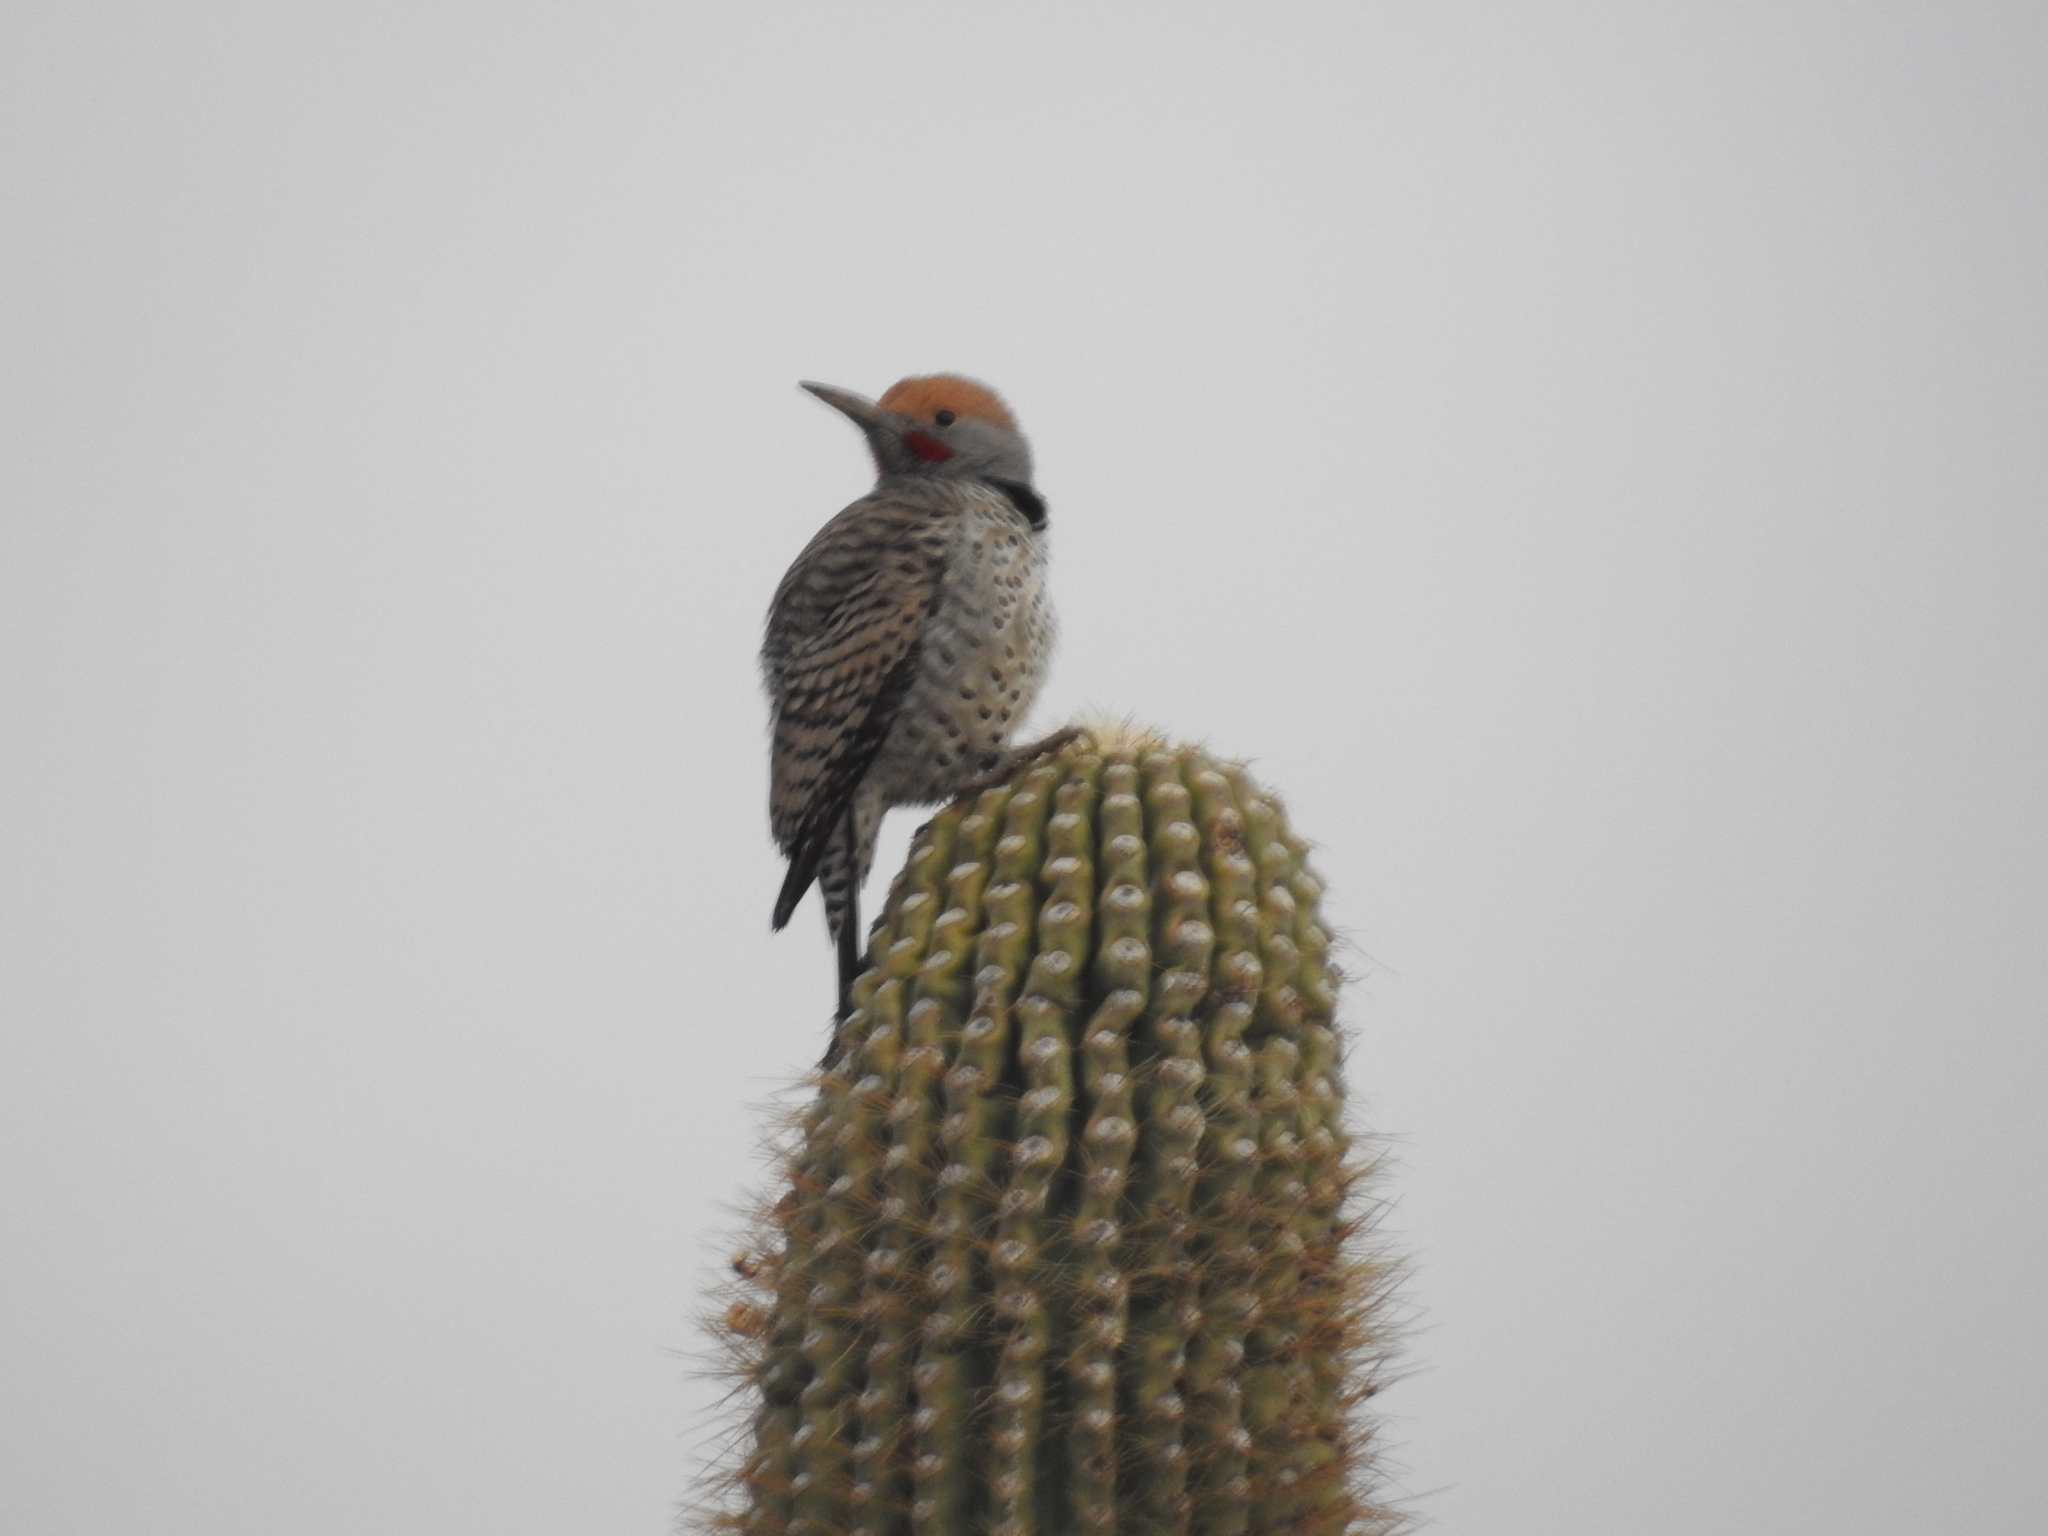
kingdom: Animalia
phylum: Chordata
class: Aves
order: Piciformes
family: Picidae
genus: Colaptes
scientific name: Colaptes chrysoides
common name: Gilded flicker
